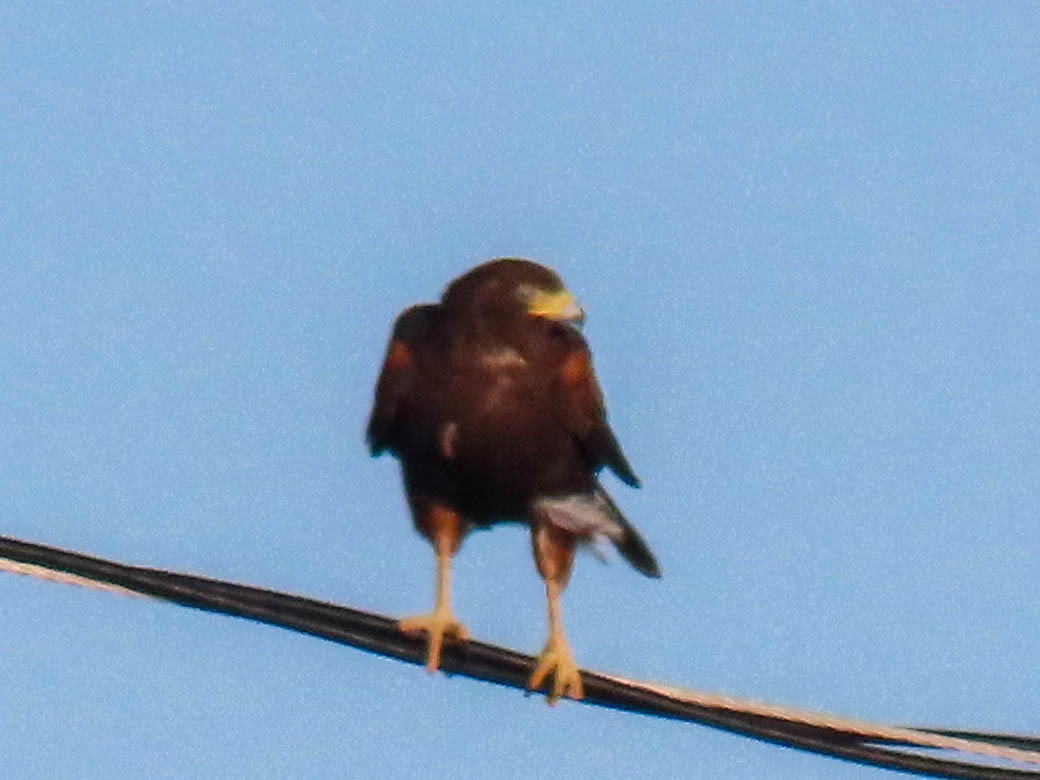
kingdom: Animalia
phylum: Chordata
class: Aves
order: Accipitriformes
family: Accipitridae
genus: Parabuteo
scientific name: Parabuteo unicinctus
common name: Harris's hawk
